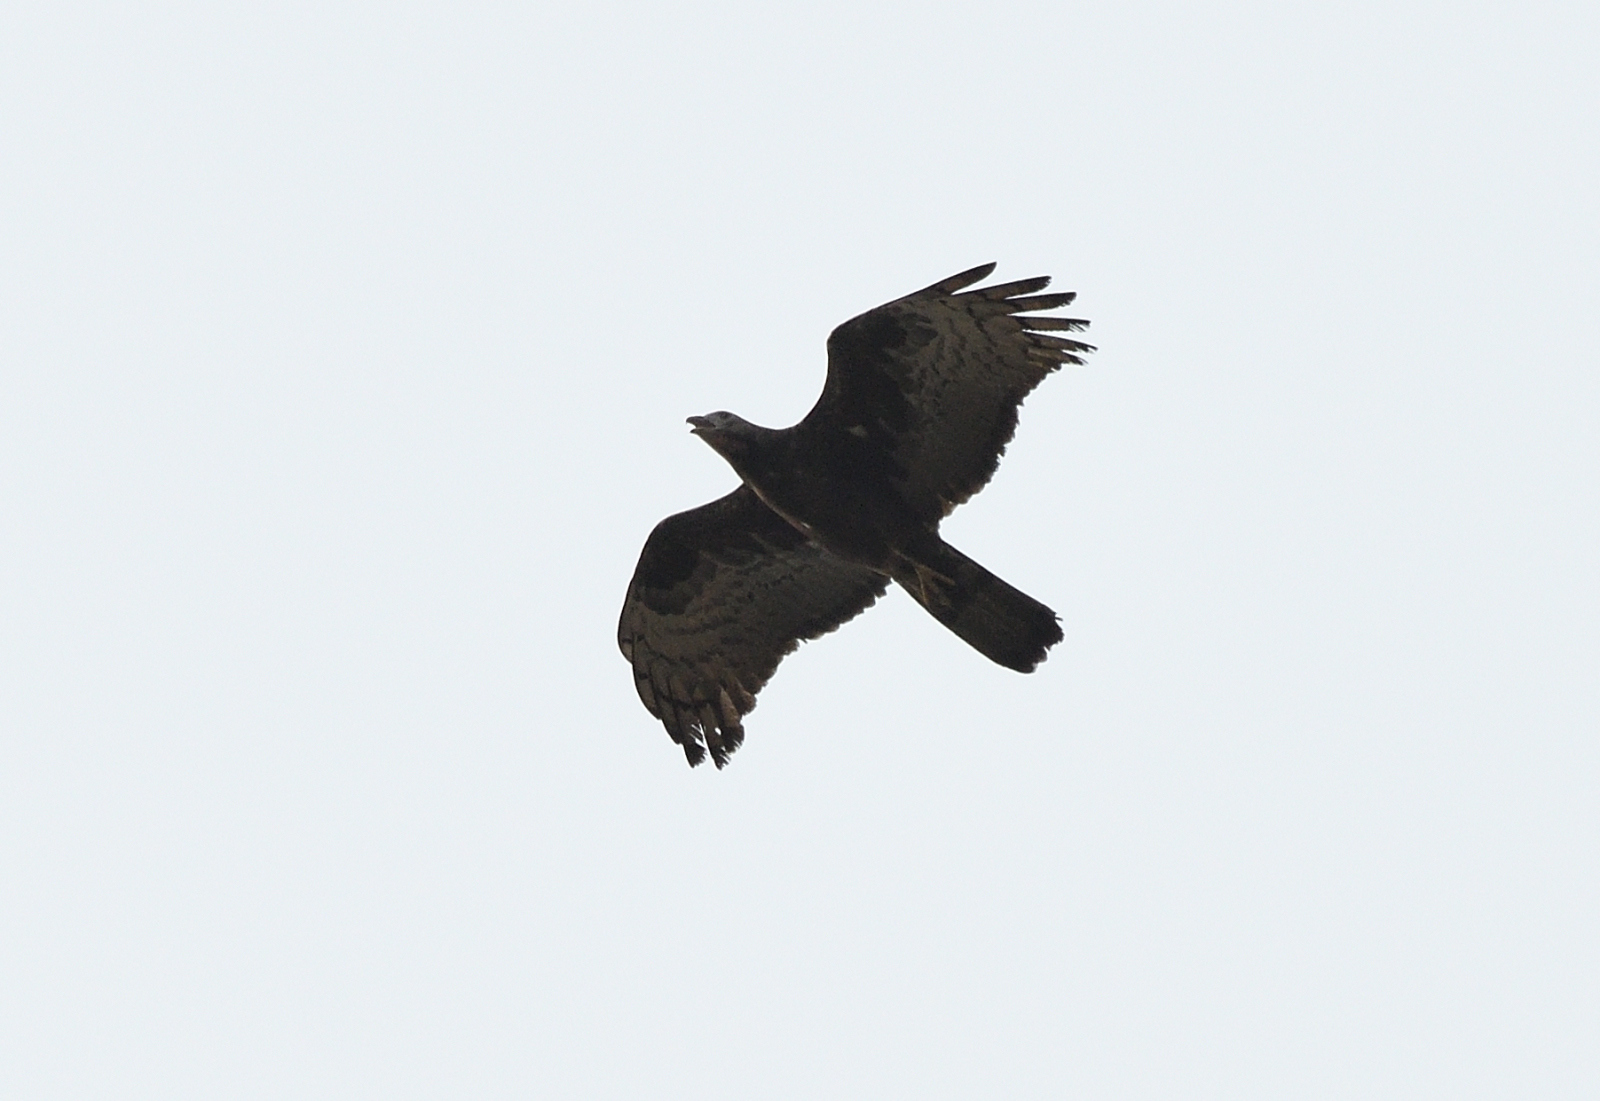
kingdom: Animalia
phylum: Chordata
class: Aves
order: Accipitriformes
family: Accipitridae
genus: Pernis
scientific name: Pernis ptilorhynchus
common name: Crested honey buzzard
